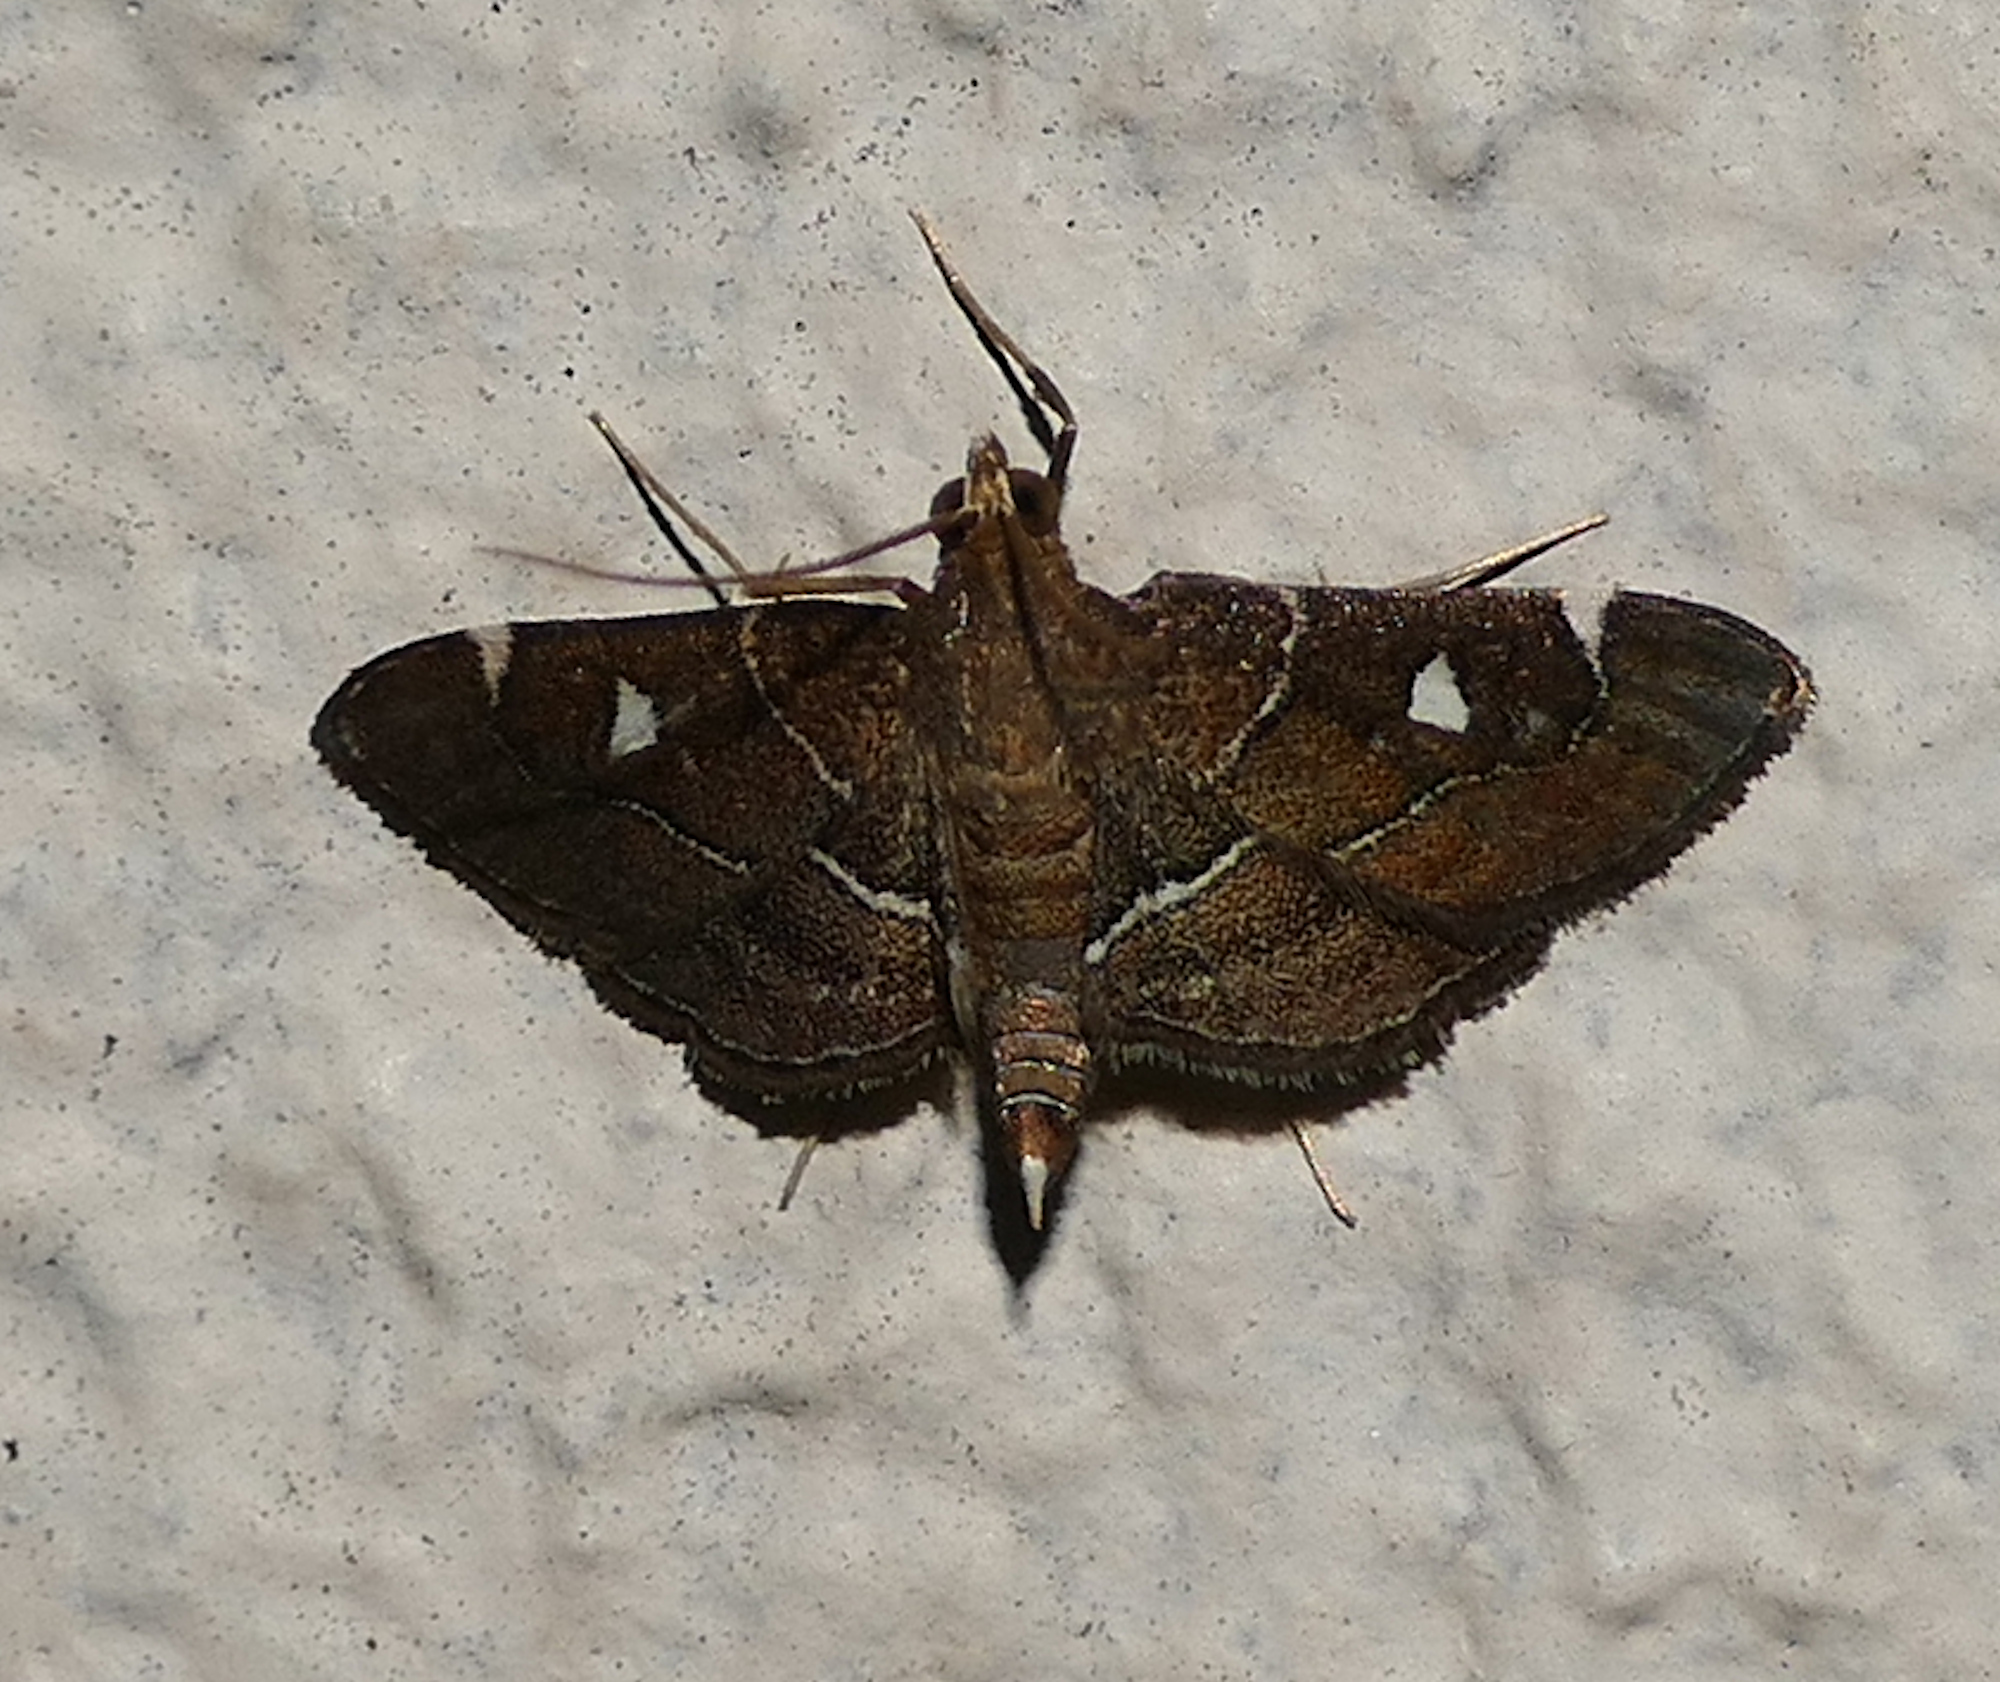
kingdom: Animalia
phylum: Arthropoda
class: Insecta
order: Lepidoptera
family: Crambidae
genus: Lamprosema
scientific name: Lamprosema victoriae
